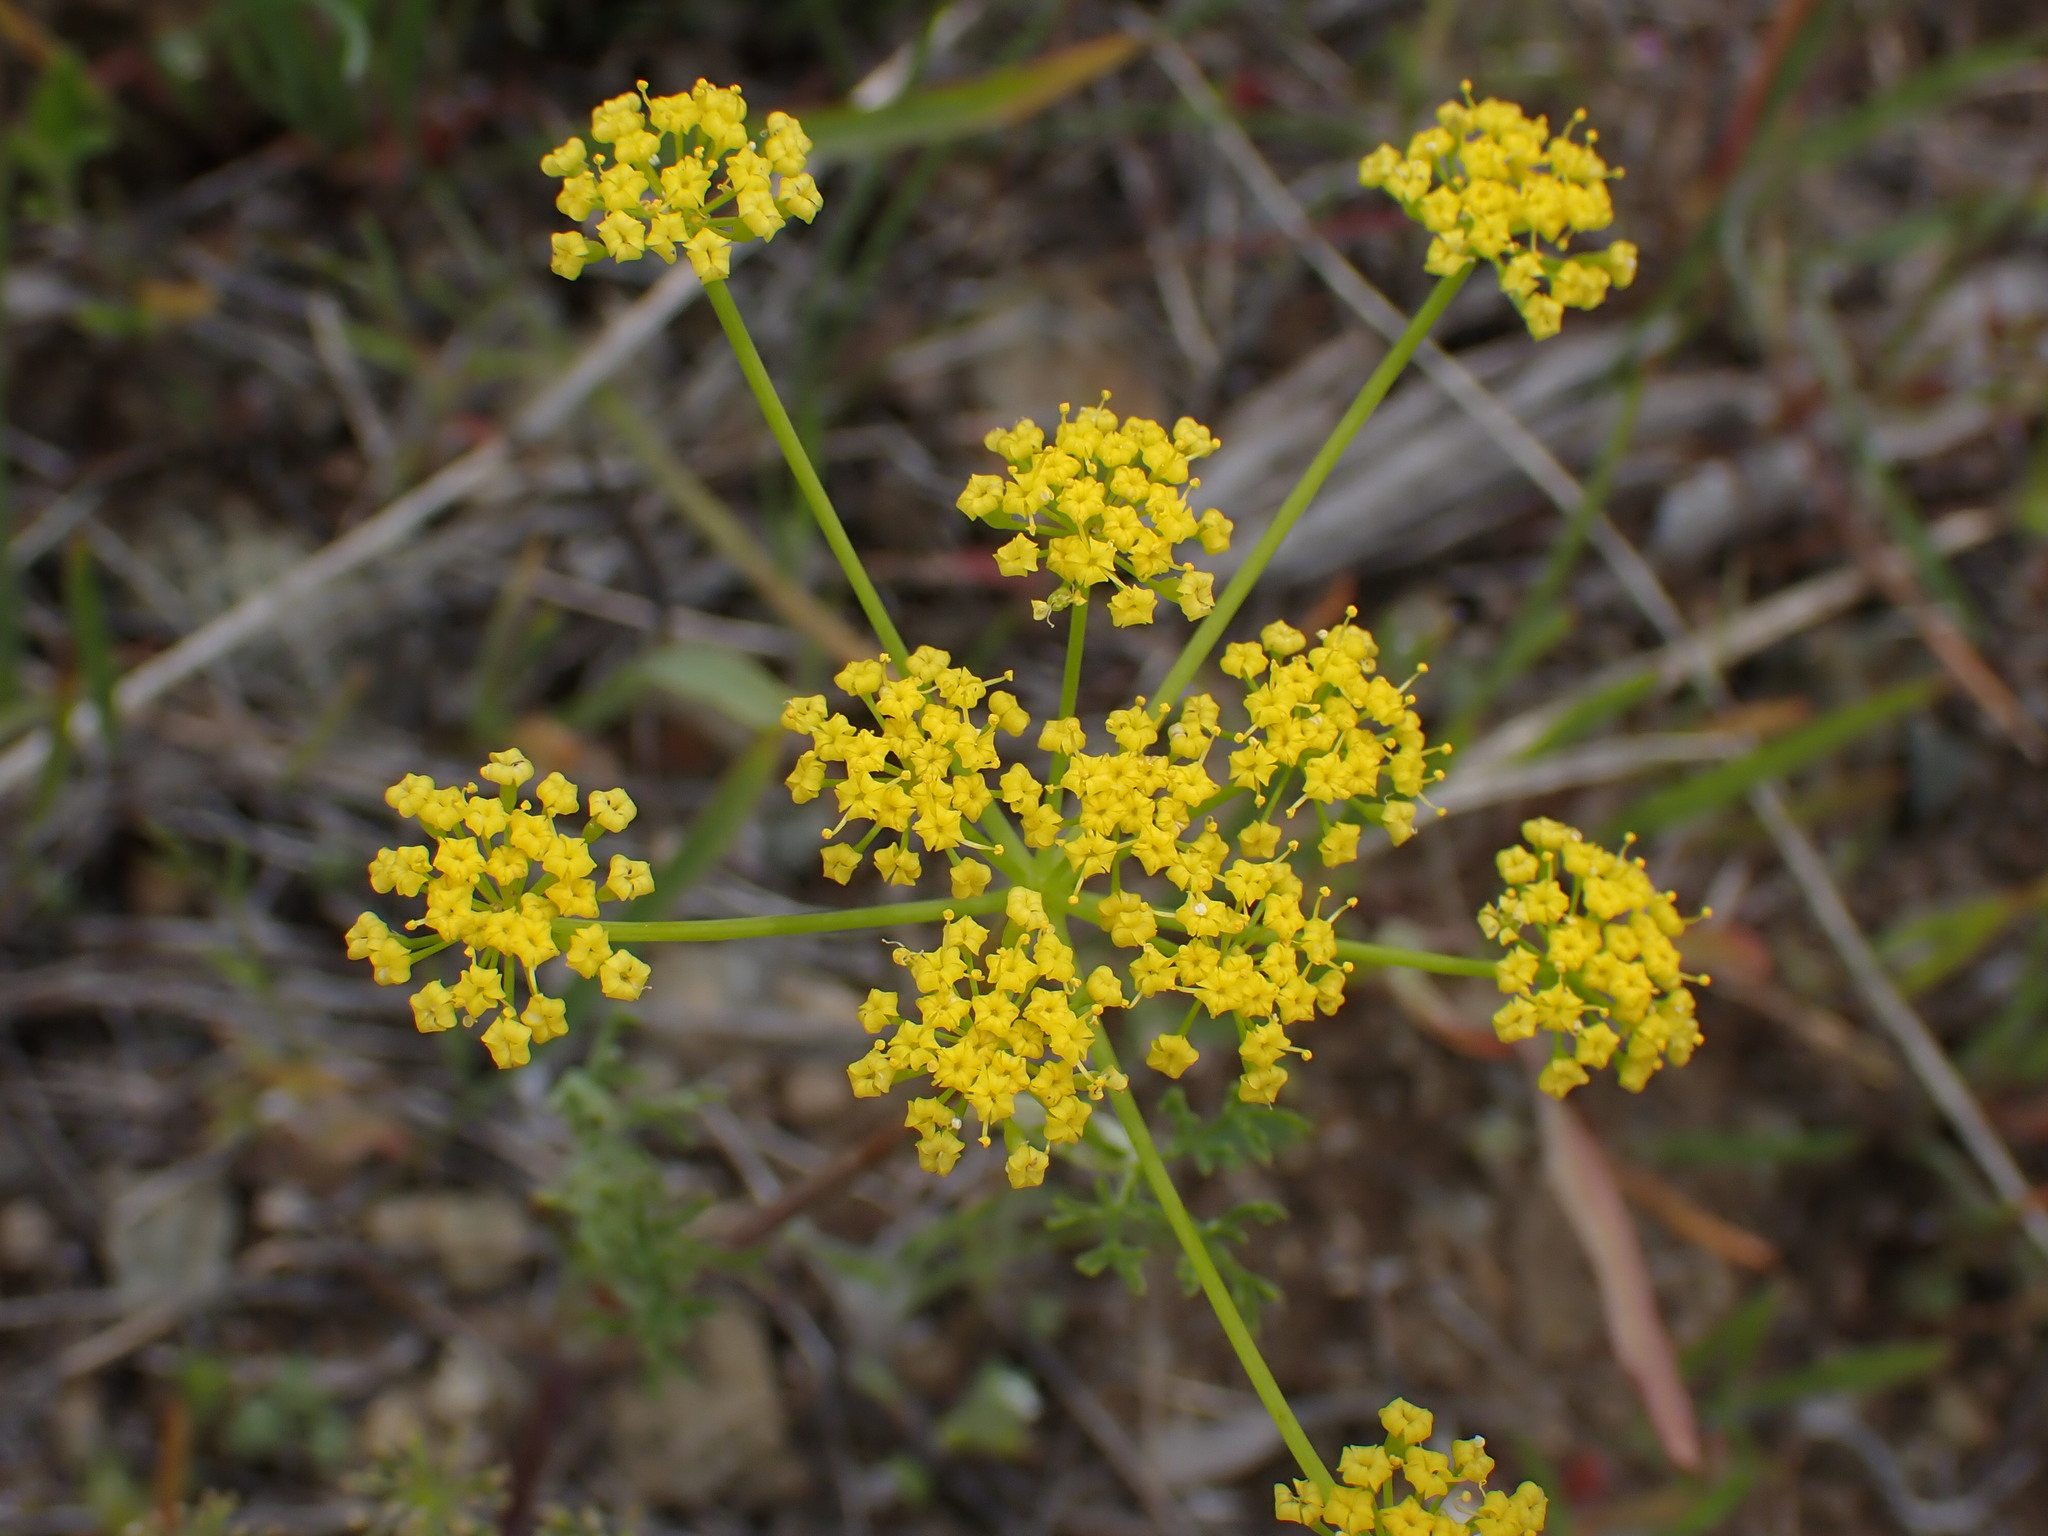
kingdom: Plantae
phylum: Tracheophyta
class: Magnoliopsida
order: Apiales
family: Apiaceae
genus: Lomatium
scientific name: Lomatium ambiguum
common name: Lacy lomatium
